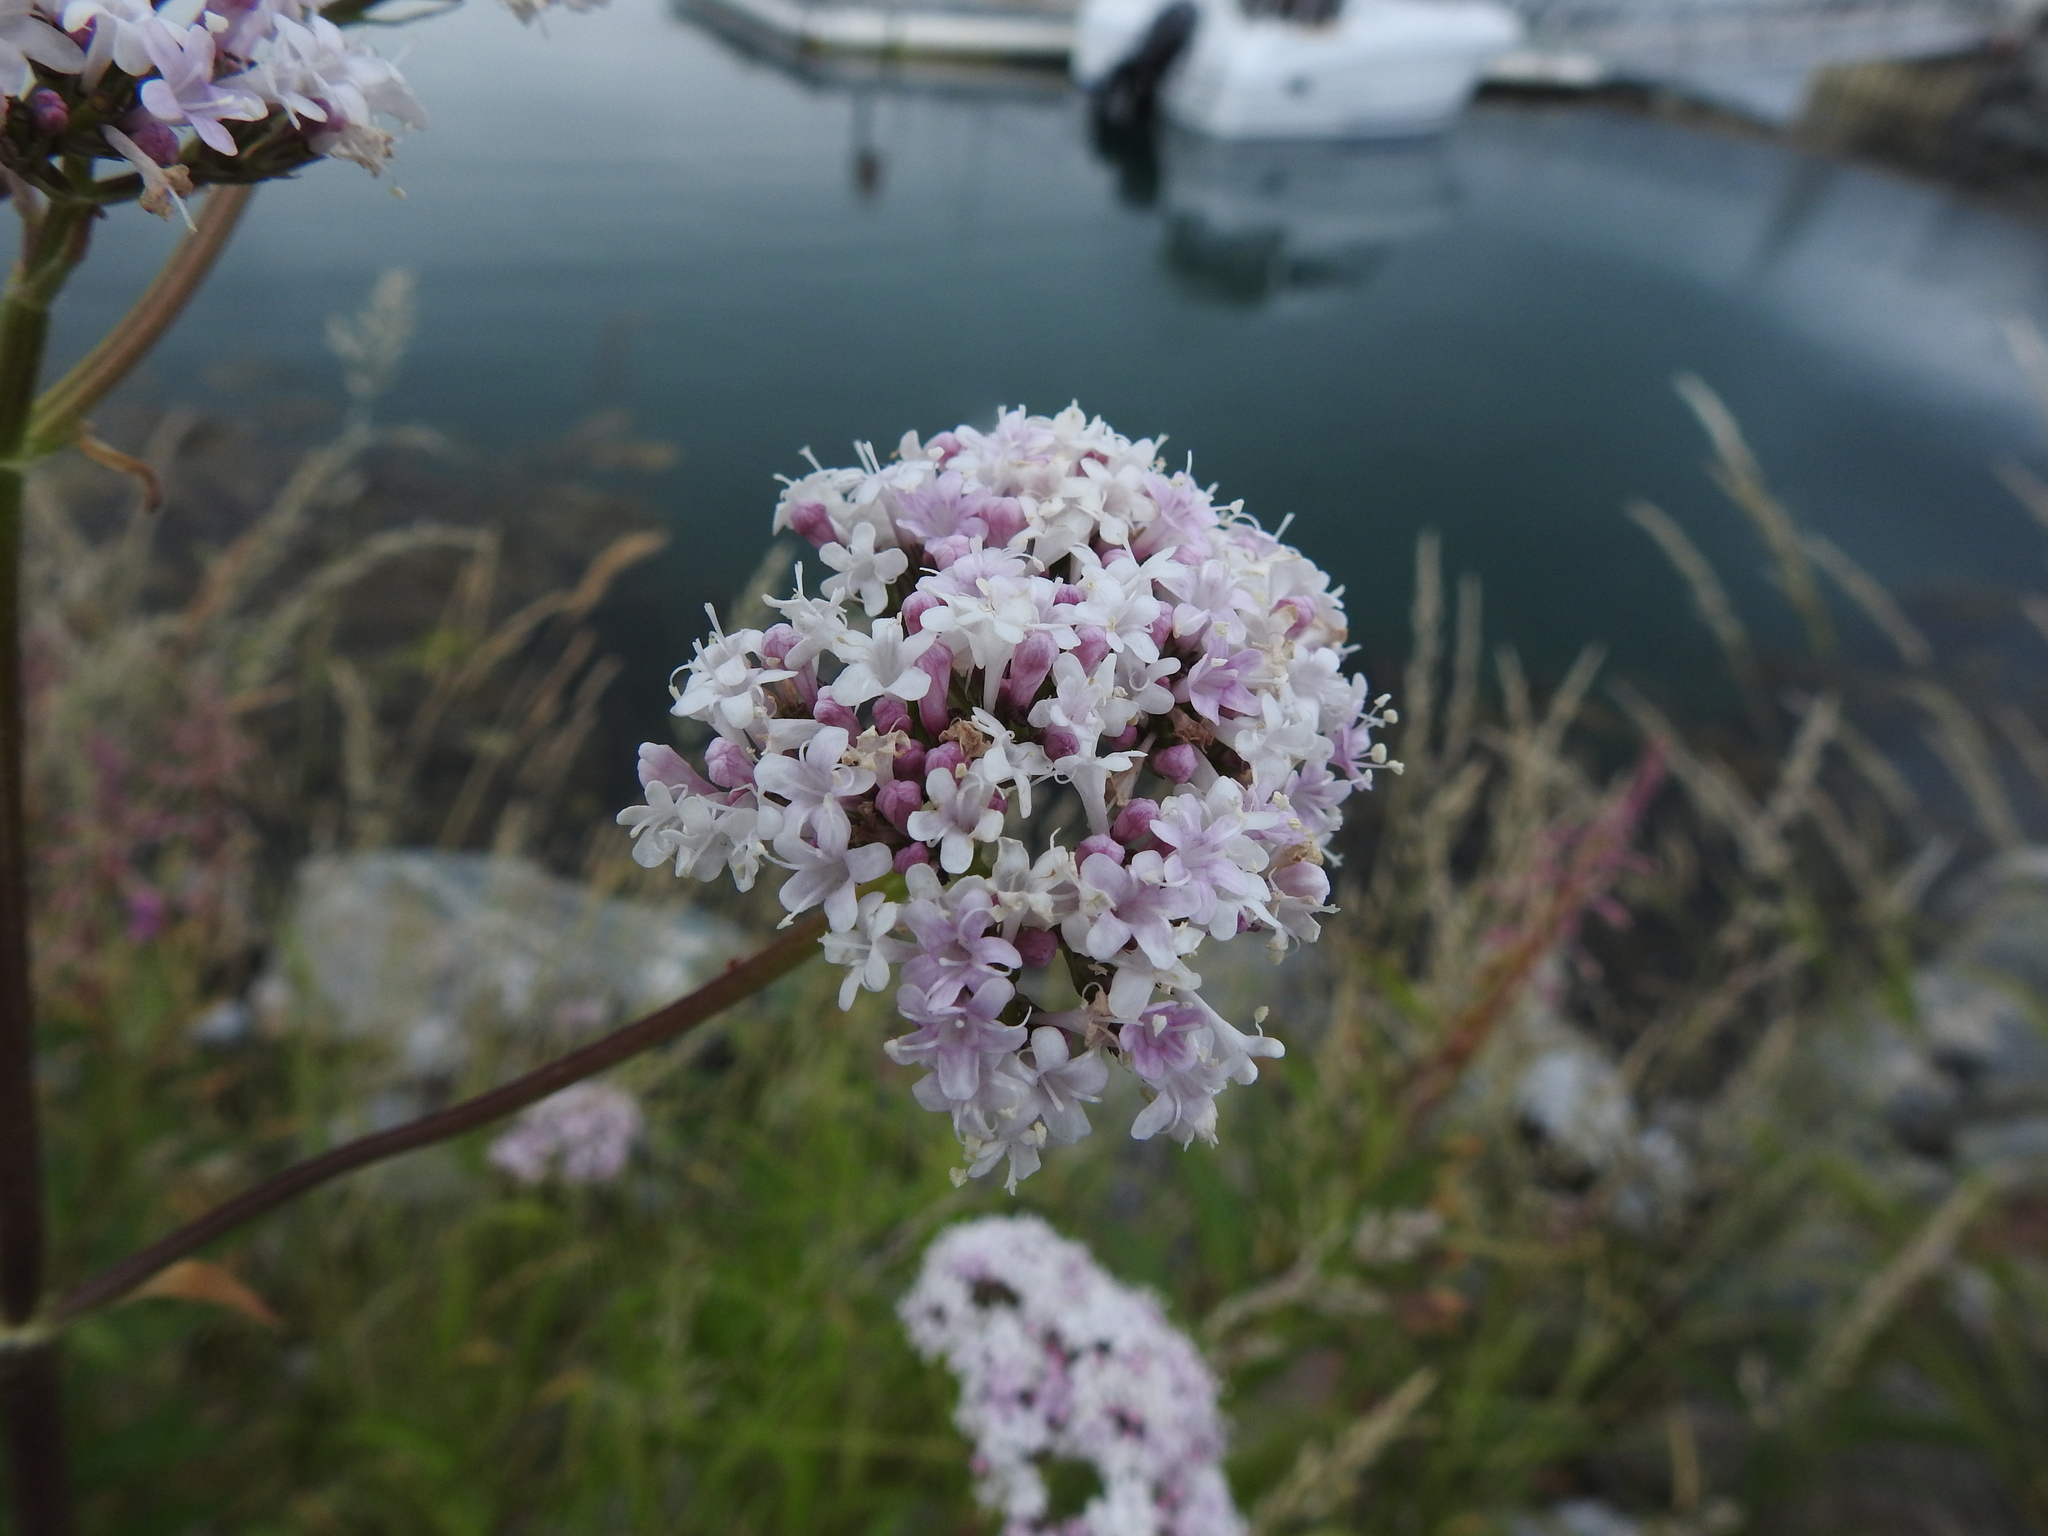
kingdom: Plantae
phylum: Tracheophyta
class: Magnoliopsida
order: Dipsacales
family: Caprifoliaceae
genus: Valeriana
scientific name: Valeriana sambucifolia
